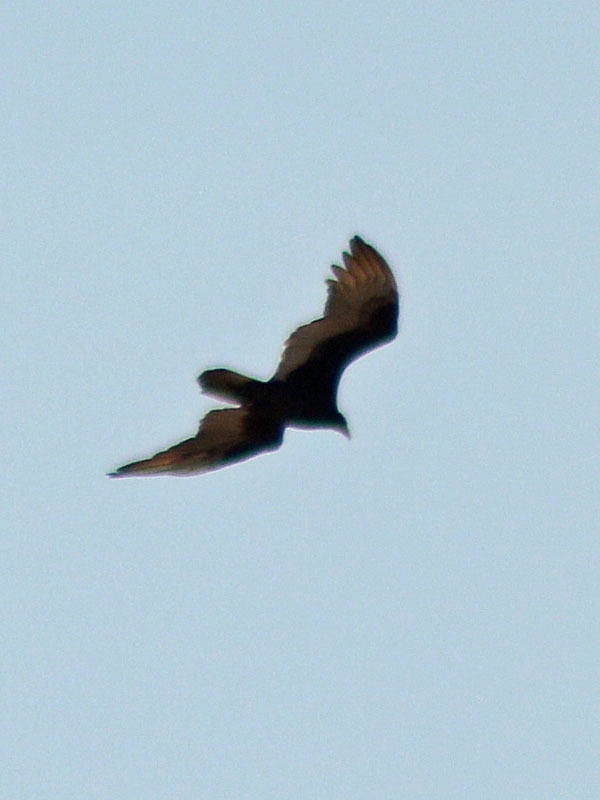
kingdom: Animalia
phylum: Chordata
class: Aves
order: Accipitriformes
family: Cathartidae
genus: Cathartes
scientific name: Cathartes aura
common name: Turkey vulture
